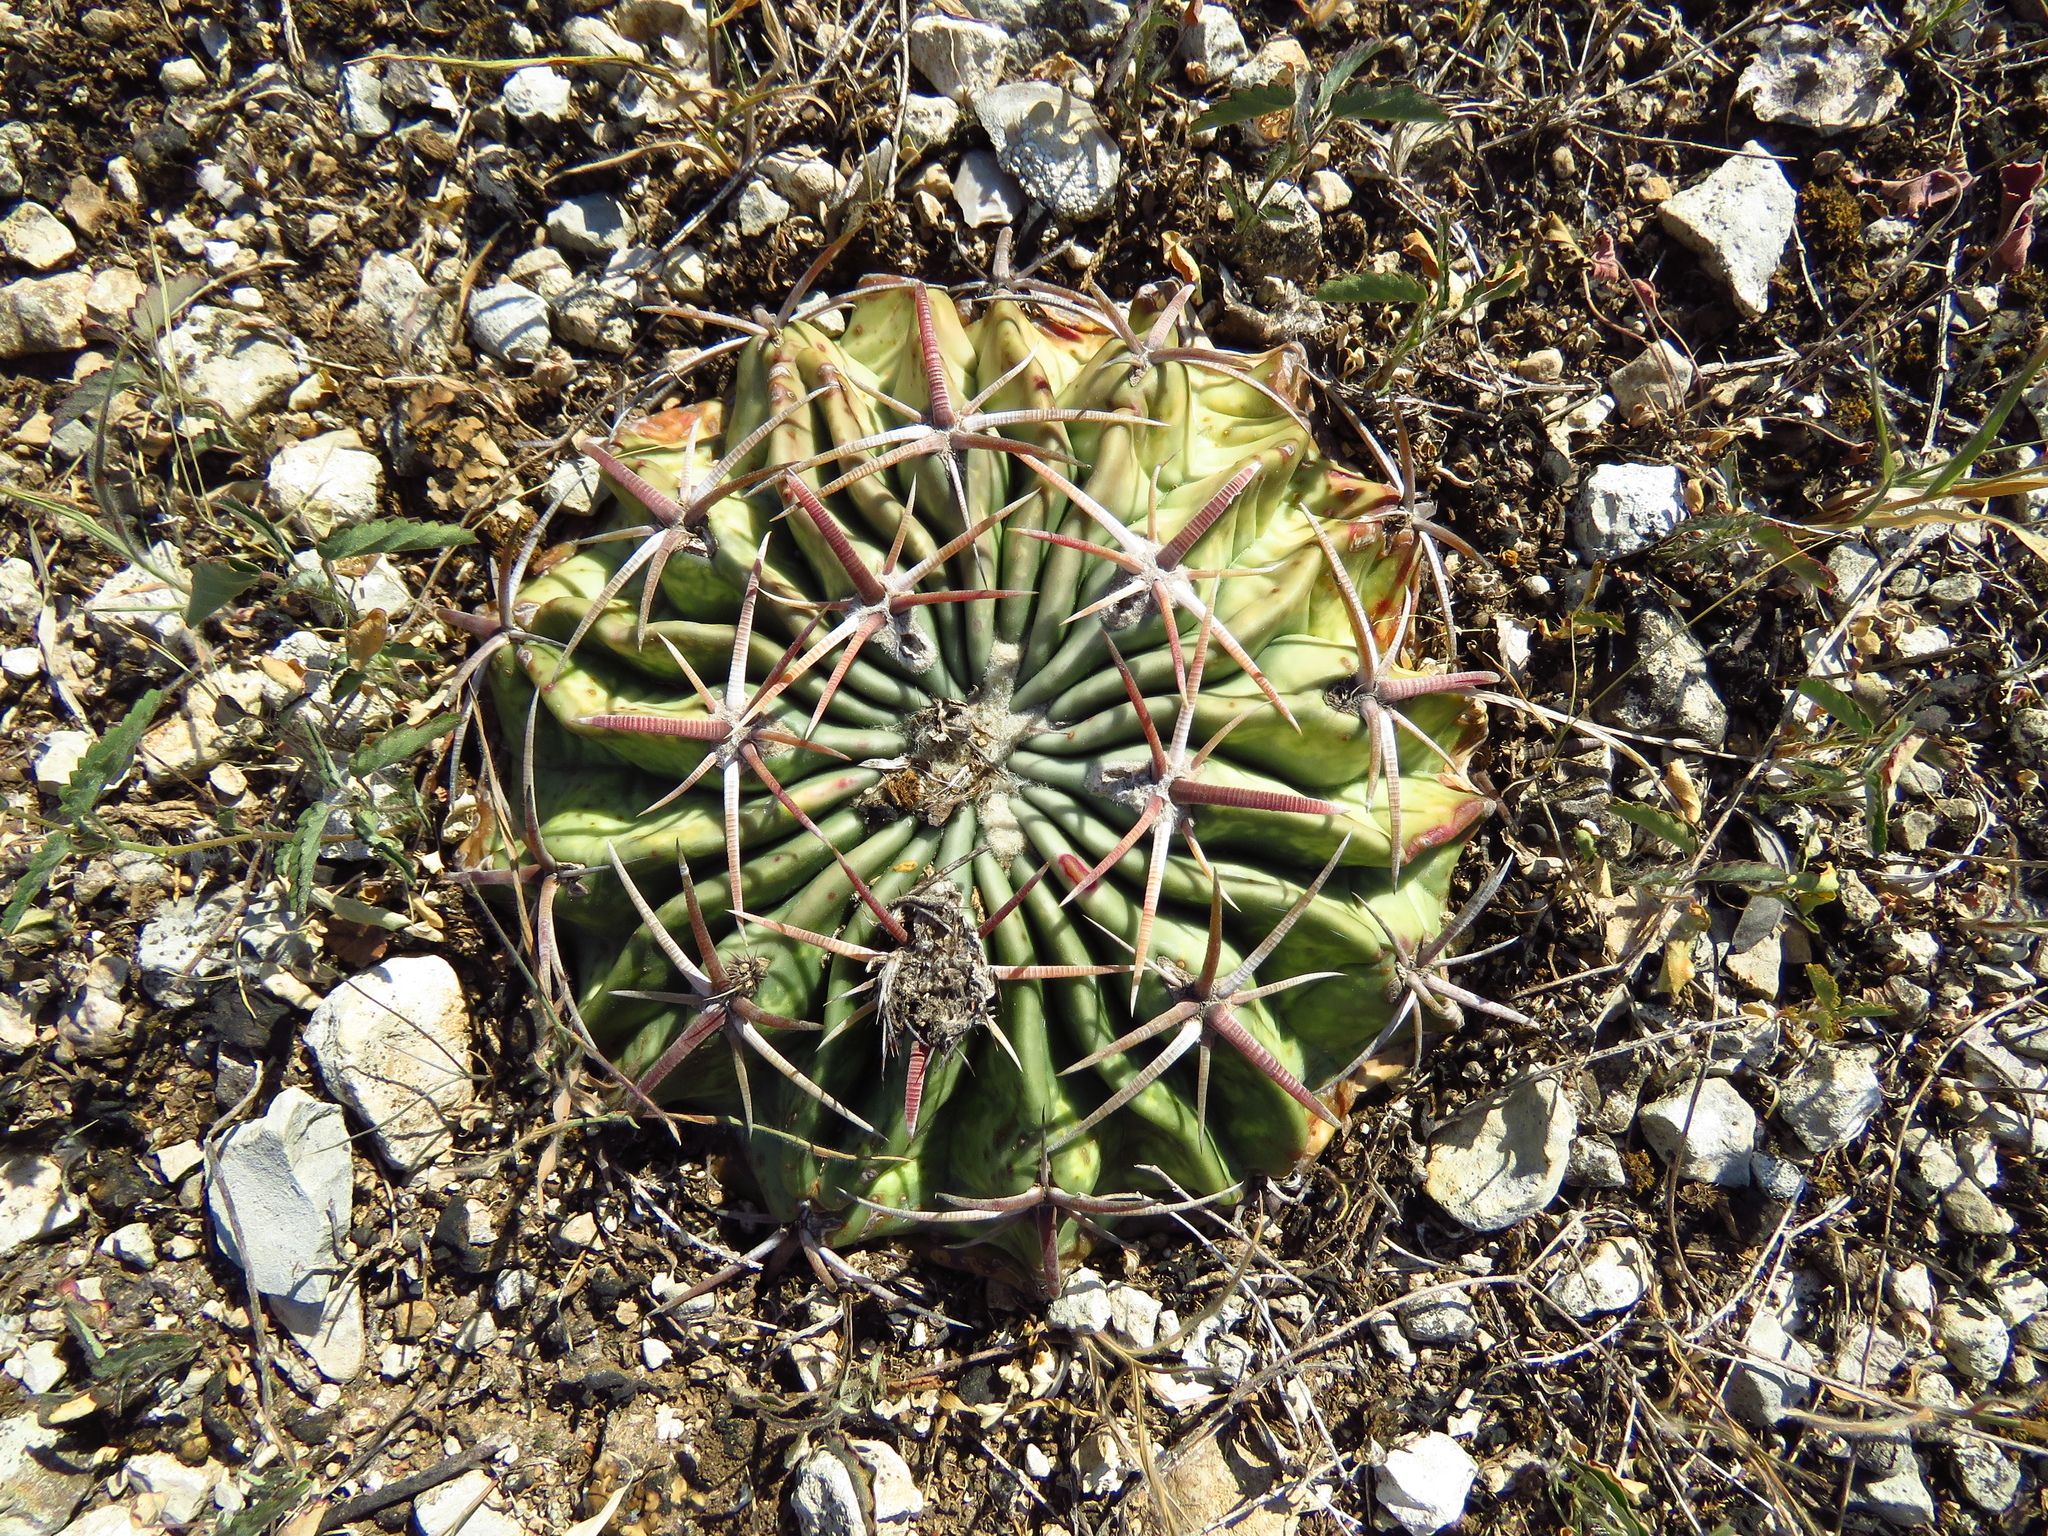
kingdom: Plantae
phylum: Tracheophyta
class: Magnoliopsida
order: Caryophyllales
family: Cactaceae
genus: Echinocactus
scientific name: Echinocactus texensis
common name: Devil's pincushion
